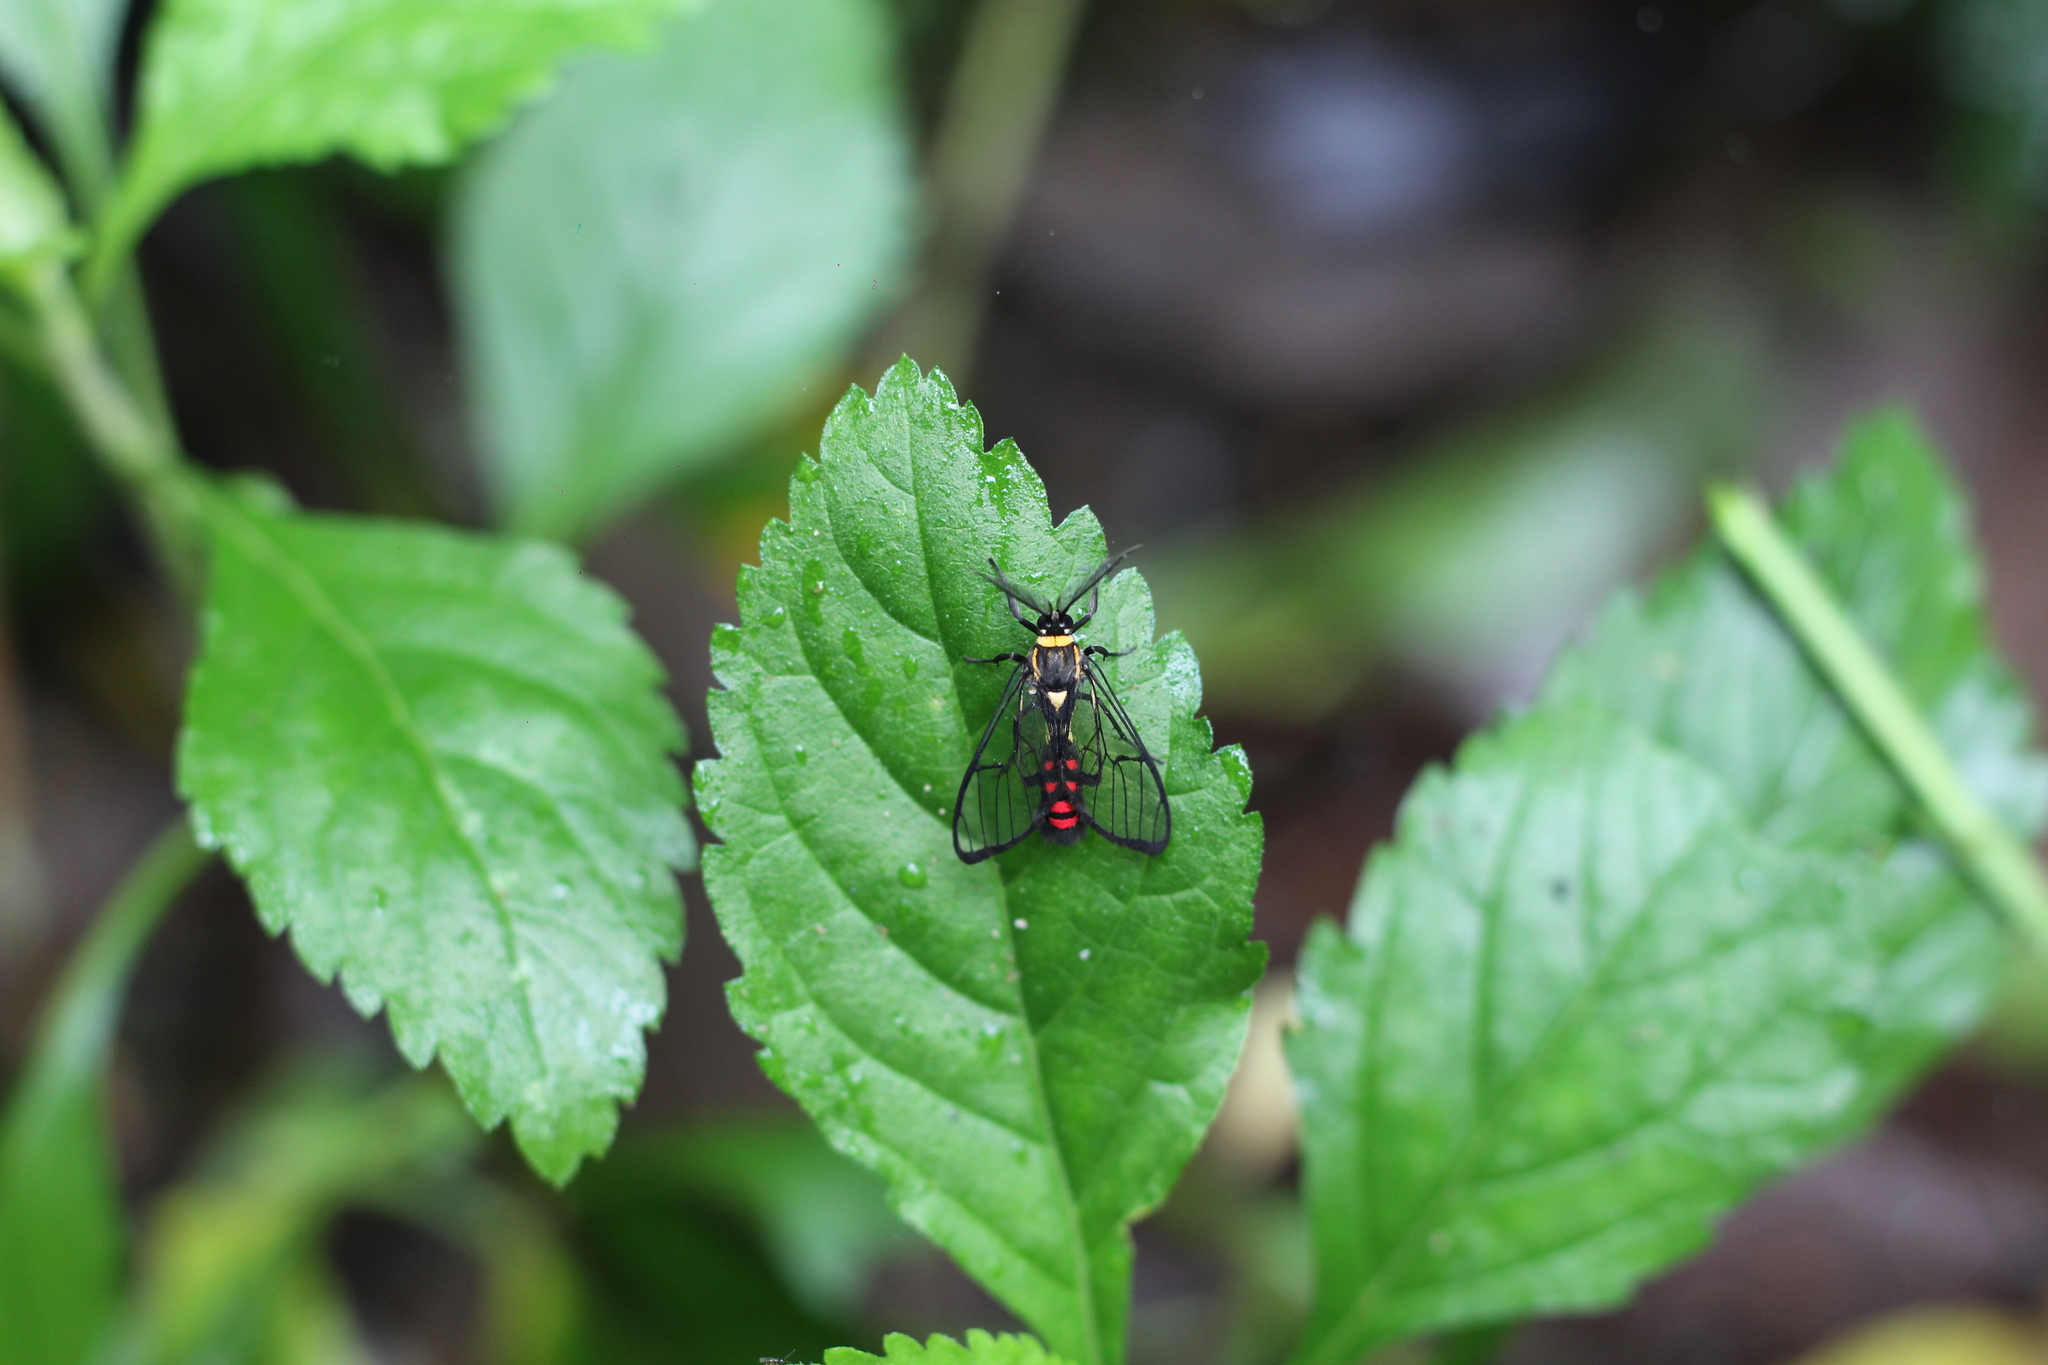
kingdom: Animalia
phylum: Arthropoda
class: Insecta
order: Lepidoptera
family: Erebidae
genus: Argyroeides
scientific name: Argyroeides sanguinea
